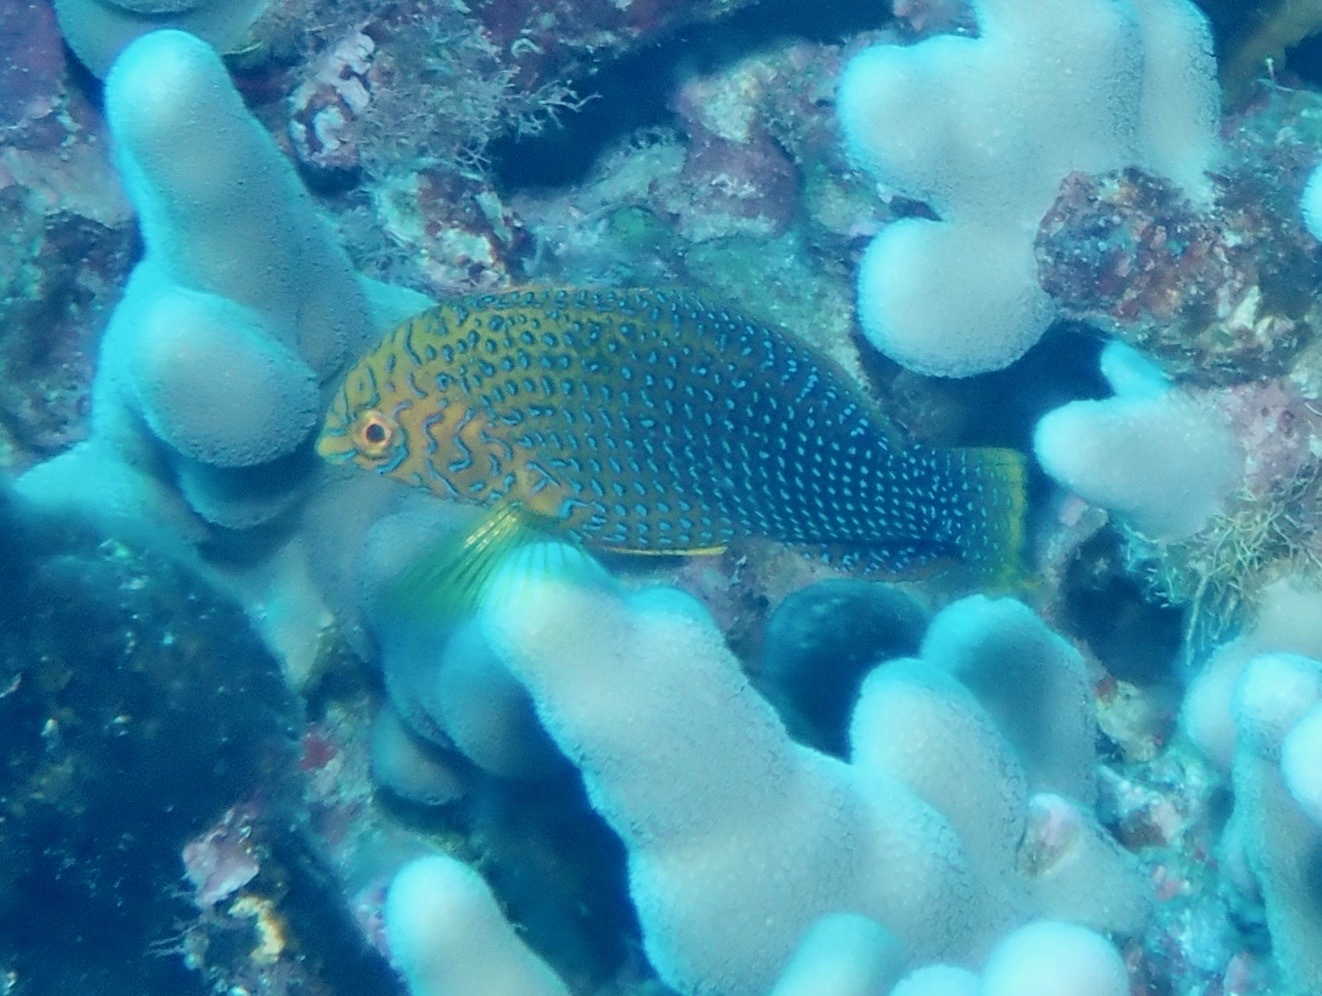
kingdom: Animalia
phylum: Chordata
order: Perciformes
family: Labridae
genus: Macropharyngodon
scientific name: Macropharyngodon geoffroy
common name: Shortnose wrasse
